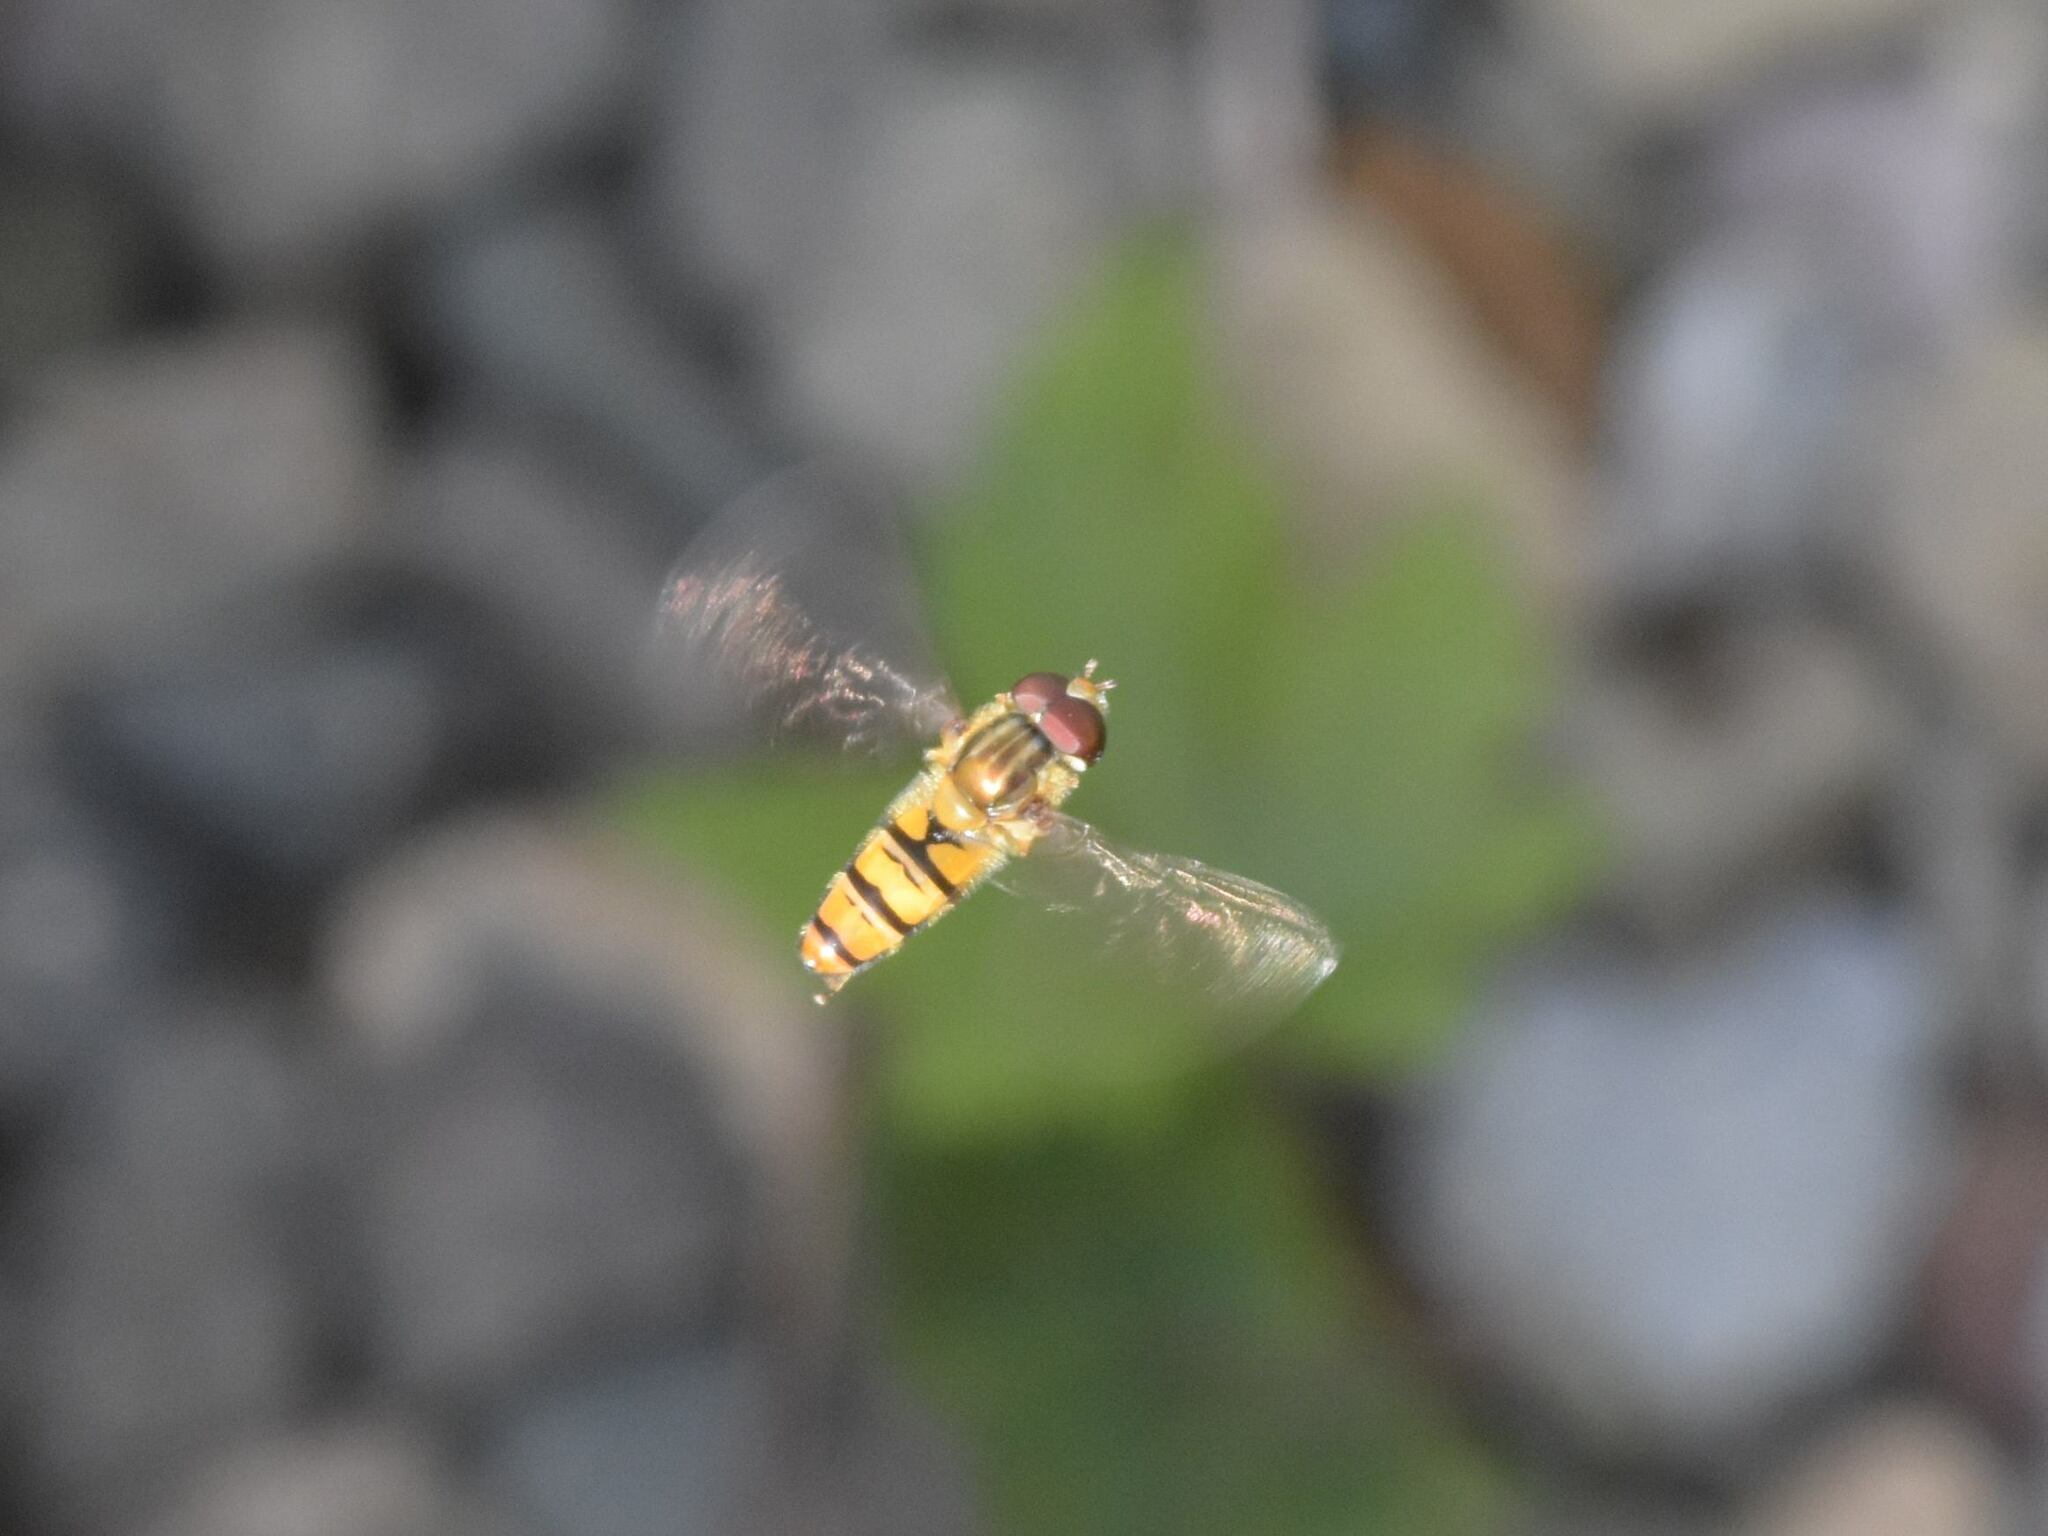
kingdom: Animalia
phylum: Arthropoda
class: Insecta
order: Diptera
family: Syrphidae
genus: Episyrphus
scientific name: Episyrphus balteatus
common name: Marmalade hoverfly
